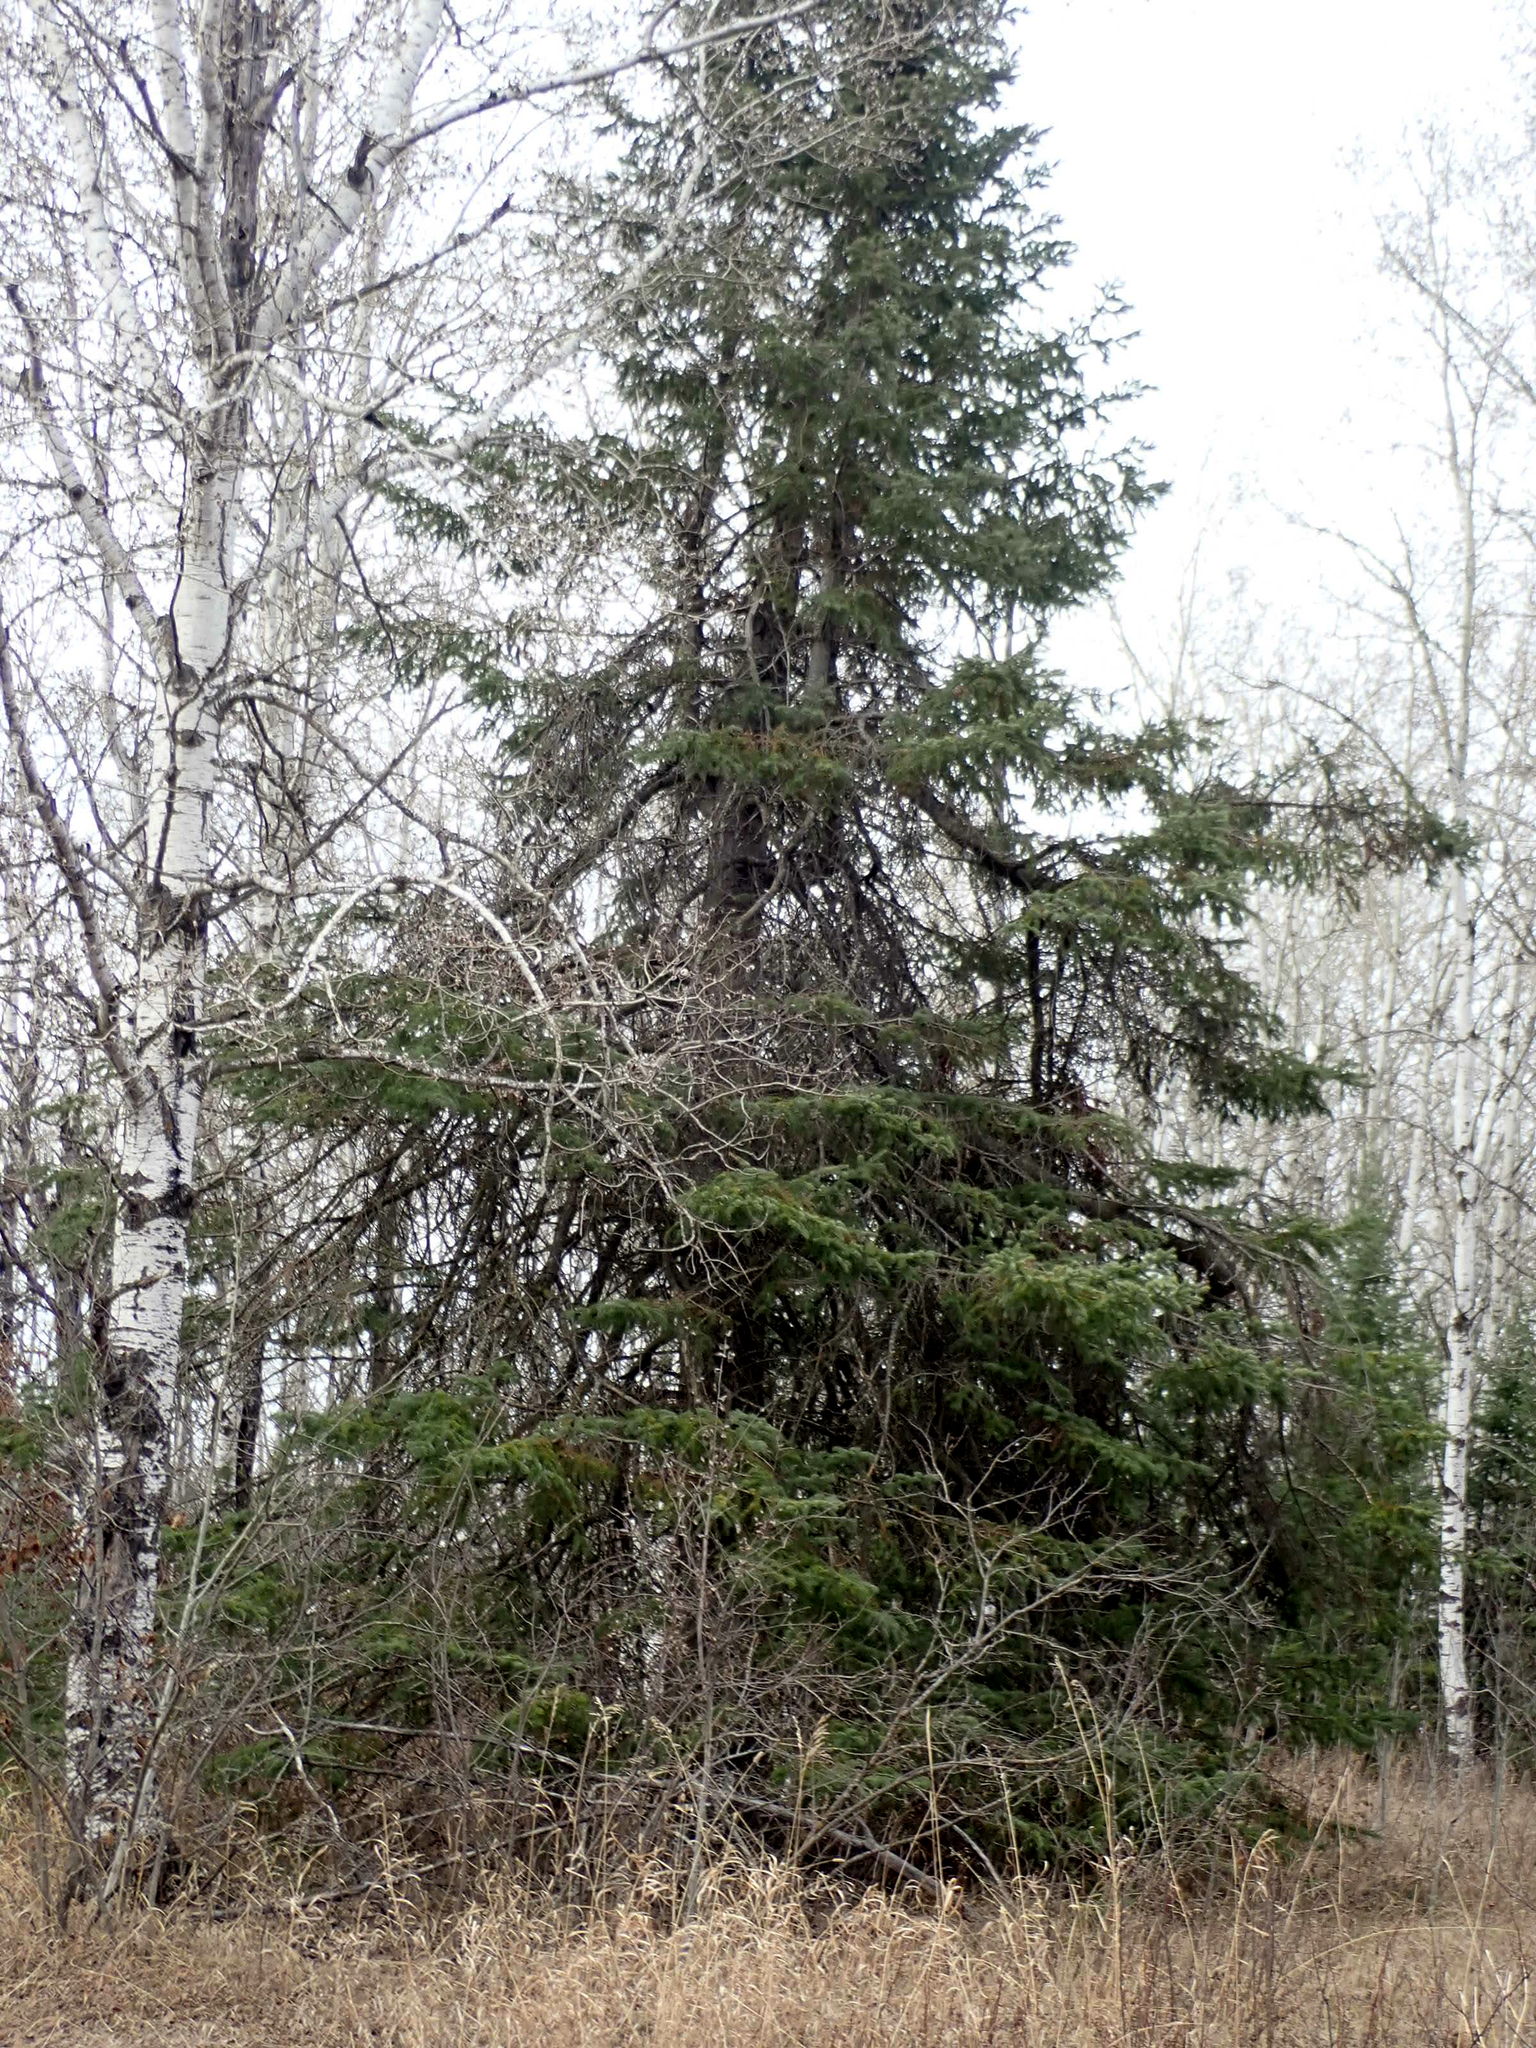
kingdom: Plantae
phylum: Tracheophyta
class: Pinopsida
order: Pinales
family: Pinaceae
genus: Picea
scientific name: Picea glauca
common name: White spruce
